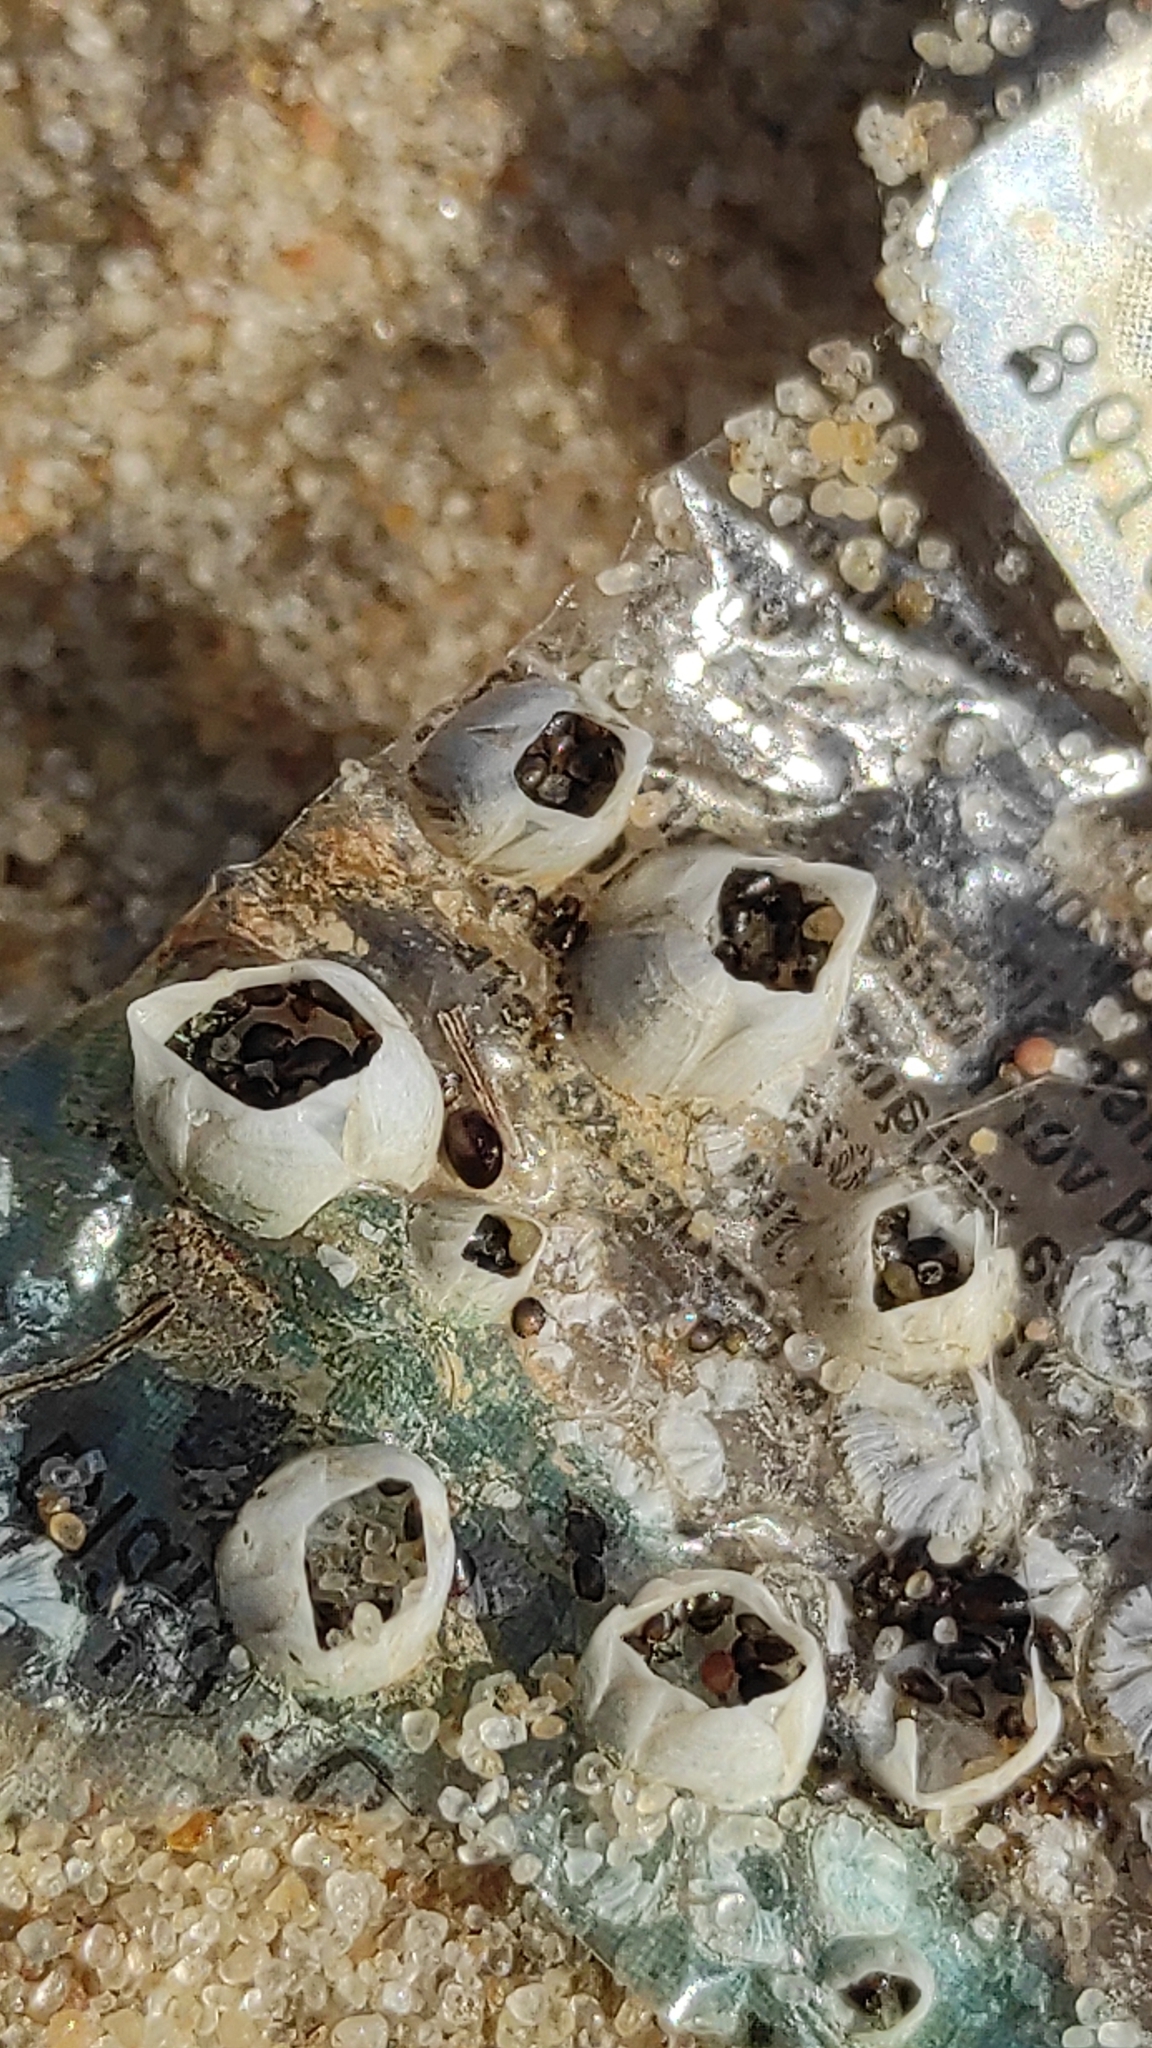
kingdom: Animalia
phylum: Arthropoda
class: Maxillopoda
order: Sessilia
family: Balanidae
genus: Amphibalanus
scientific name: Amphibalanus improvisus
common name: Bay barnacle
